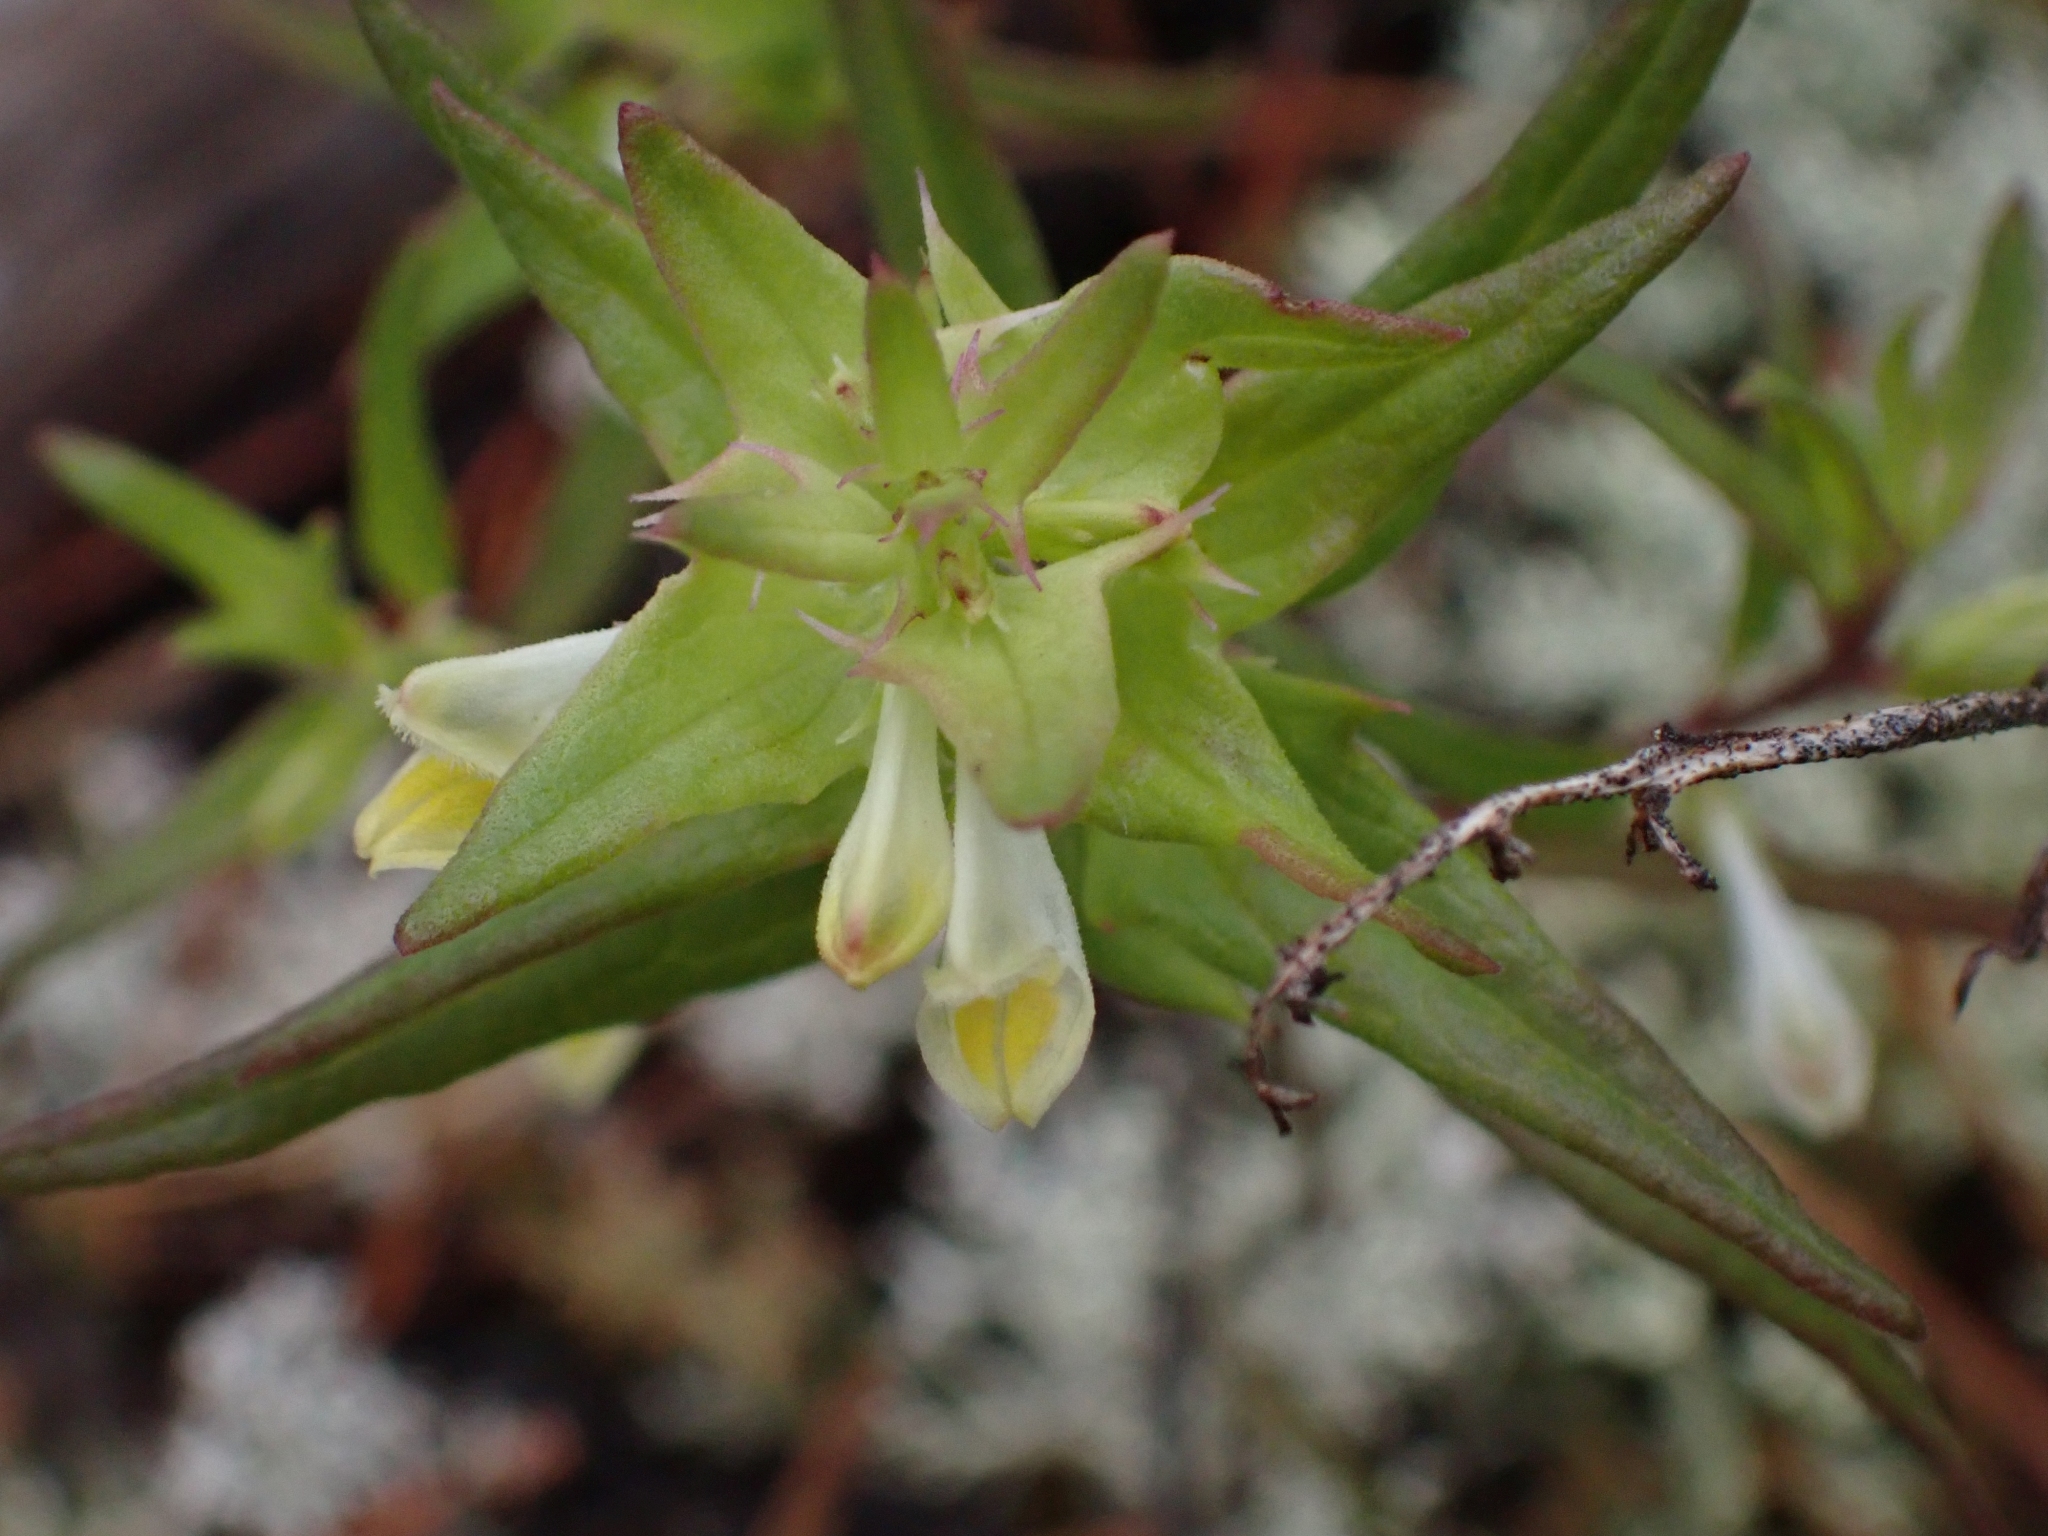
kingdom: Plantae
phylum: Tracheophyta
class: Magnoliopsida
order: Lamiales
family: Orobanchaceae
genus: Melampyrum
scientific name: Melampyrum lineare
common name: American cow-wheat
